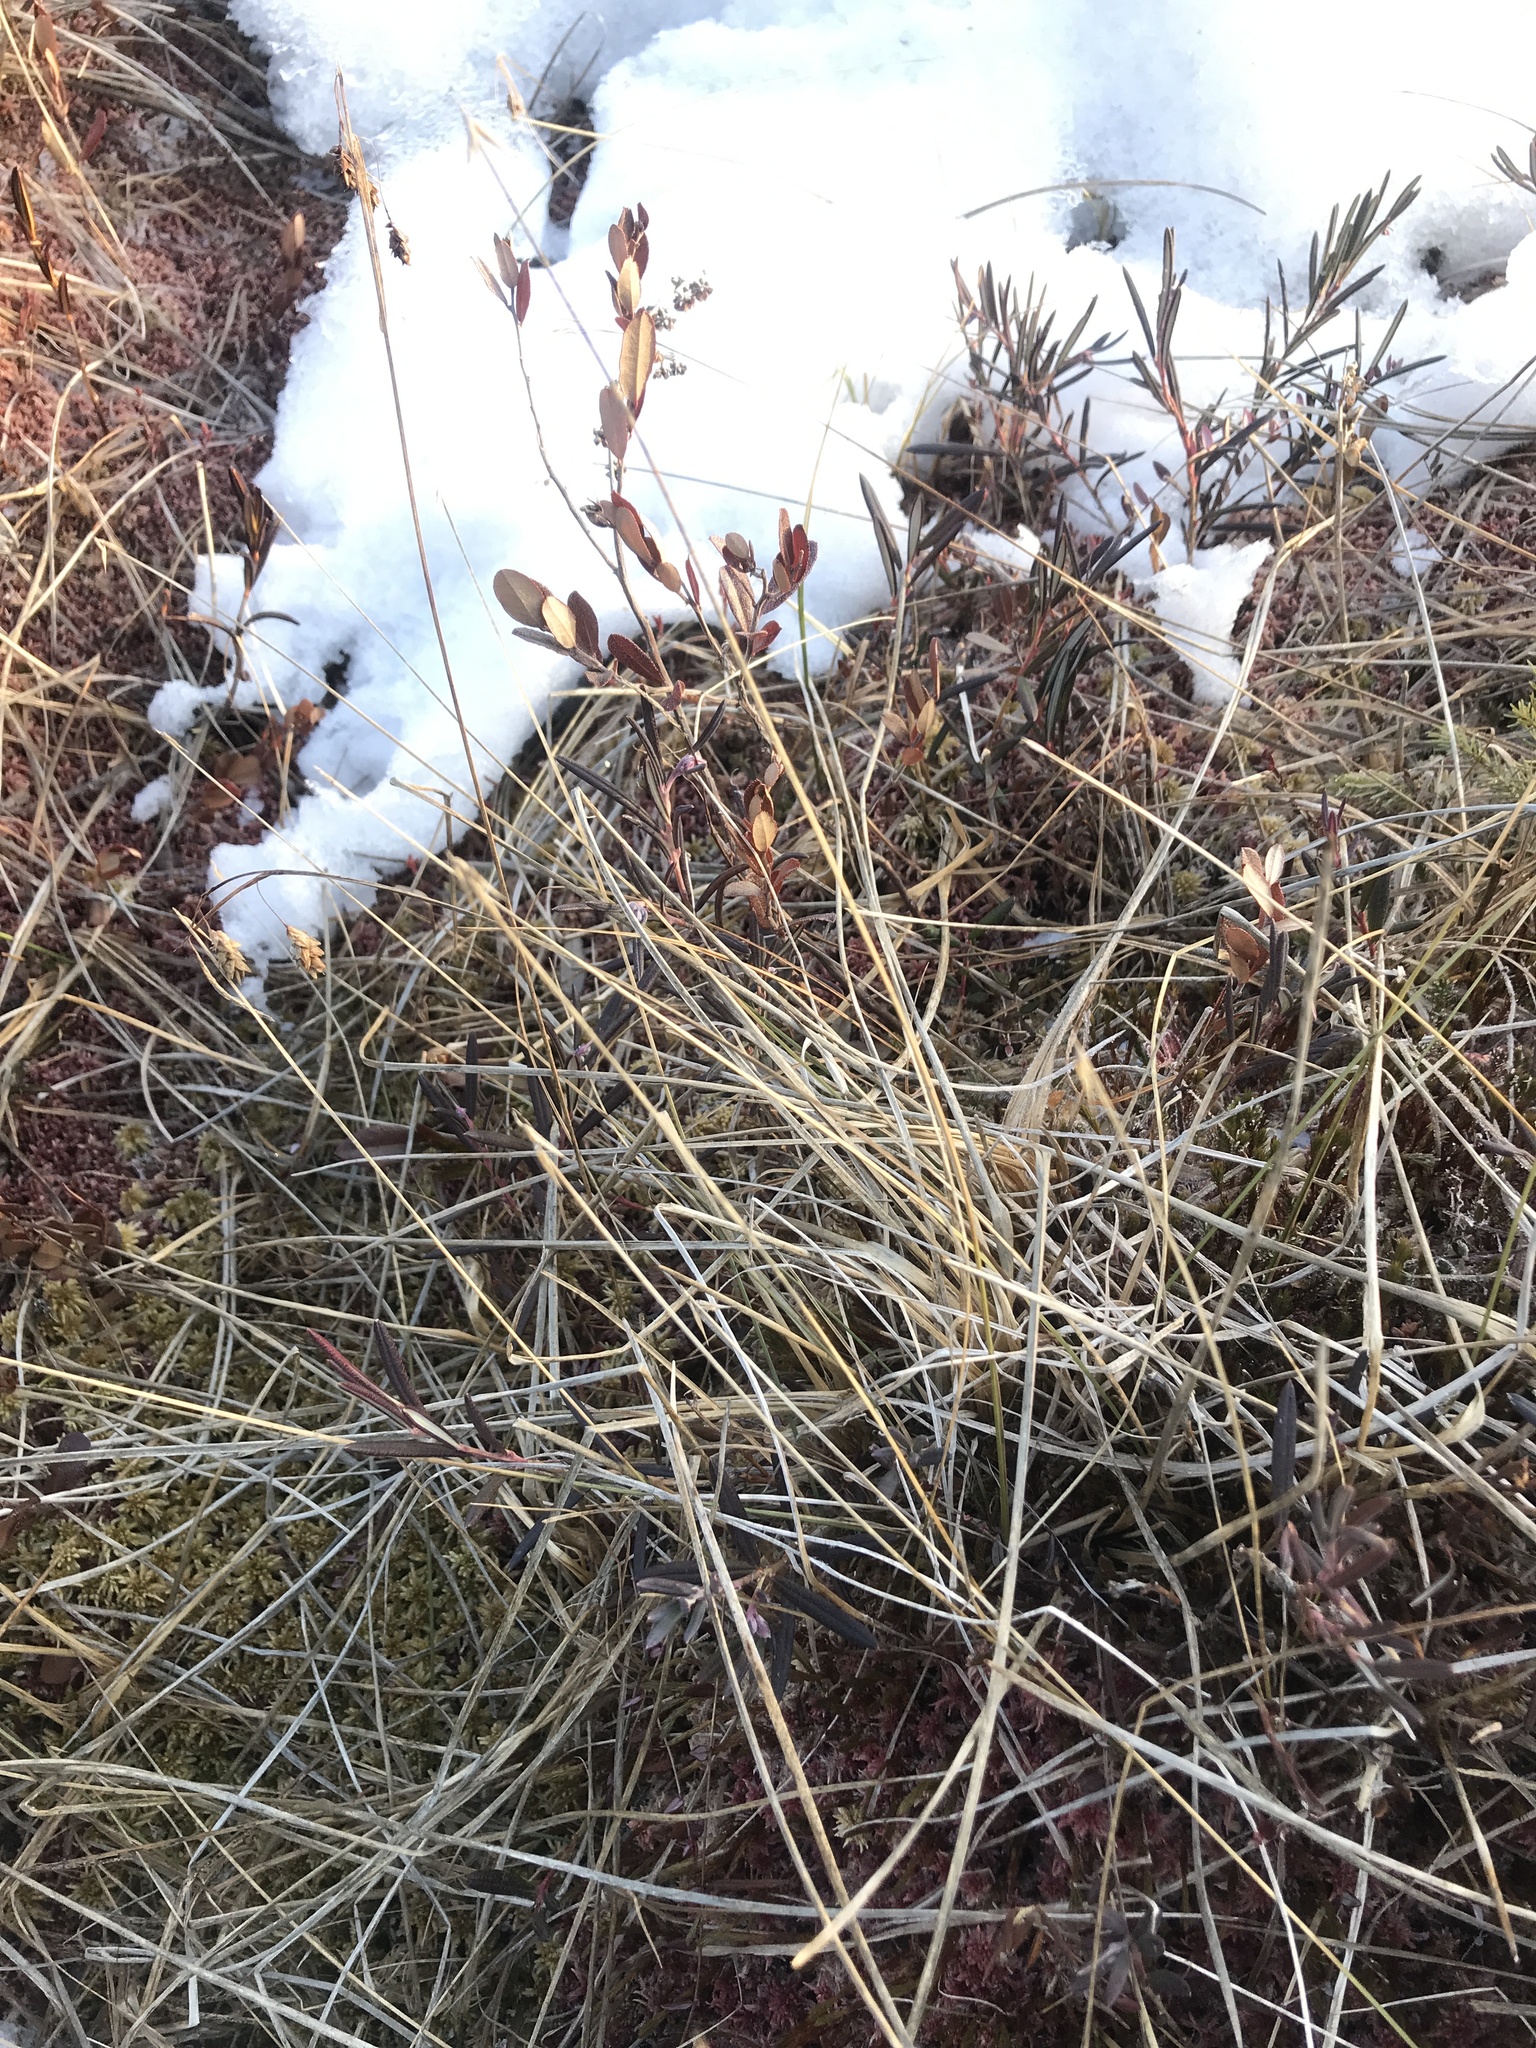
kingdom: Plantae
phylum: Tracheophyta
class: Liliopsida
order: Poales
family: Cyperaceae
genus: Carex
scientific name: Carex pauciflora
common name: Few-flowered sedge
